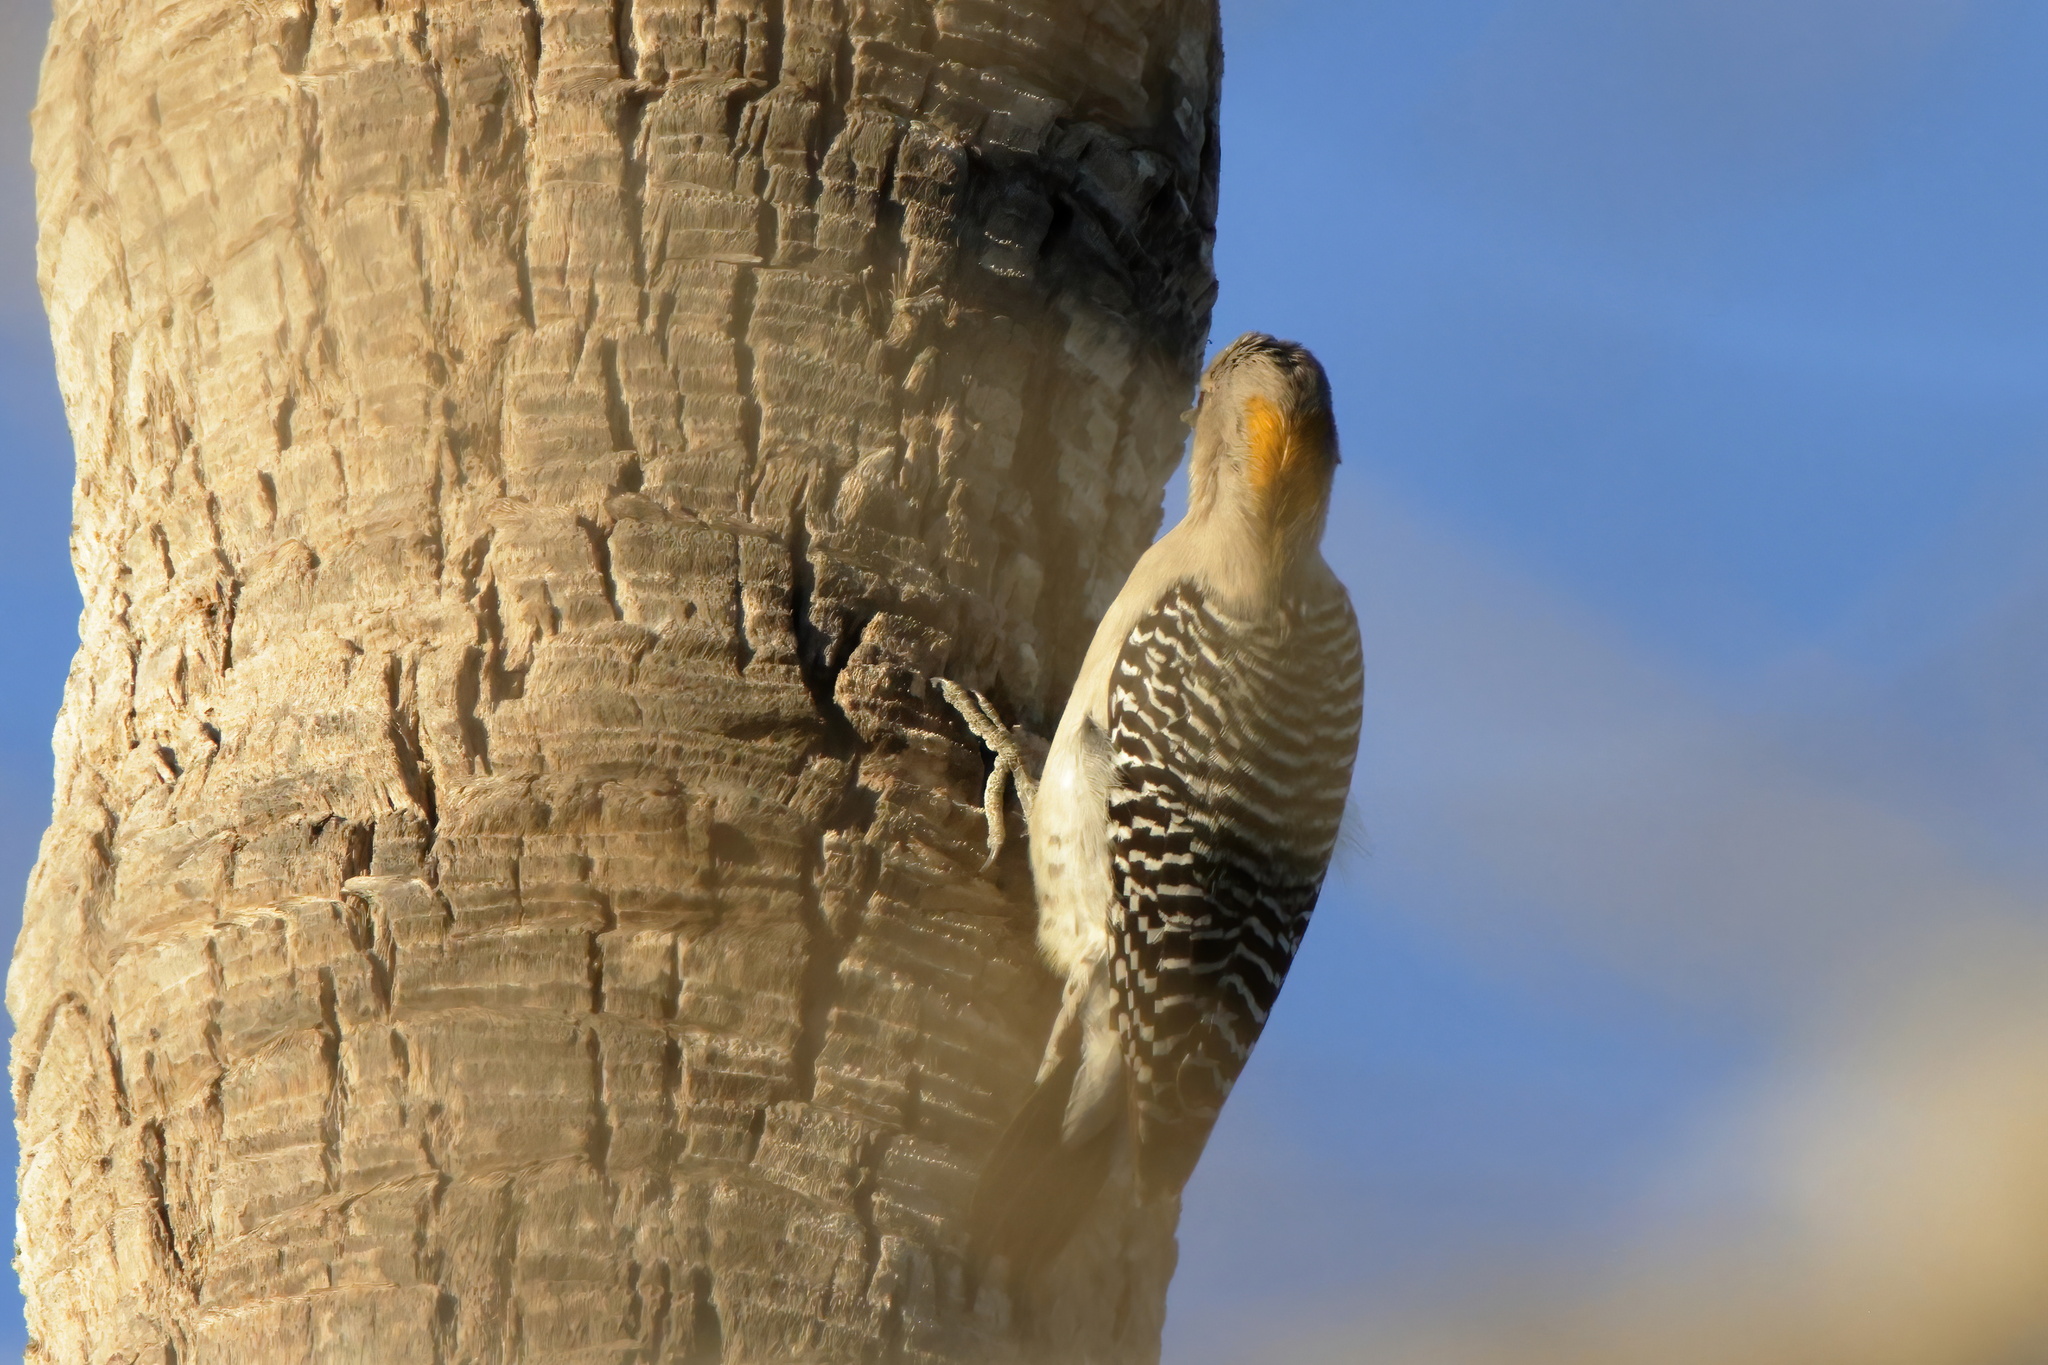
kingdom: Animalia
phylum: Chordata
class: Aves
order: Piciformes
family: Picidae
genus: Melanerpes
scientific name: Melanerpes aurifrons
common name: Golden-fronted woodpecker
